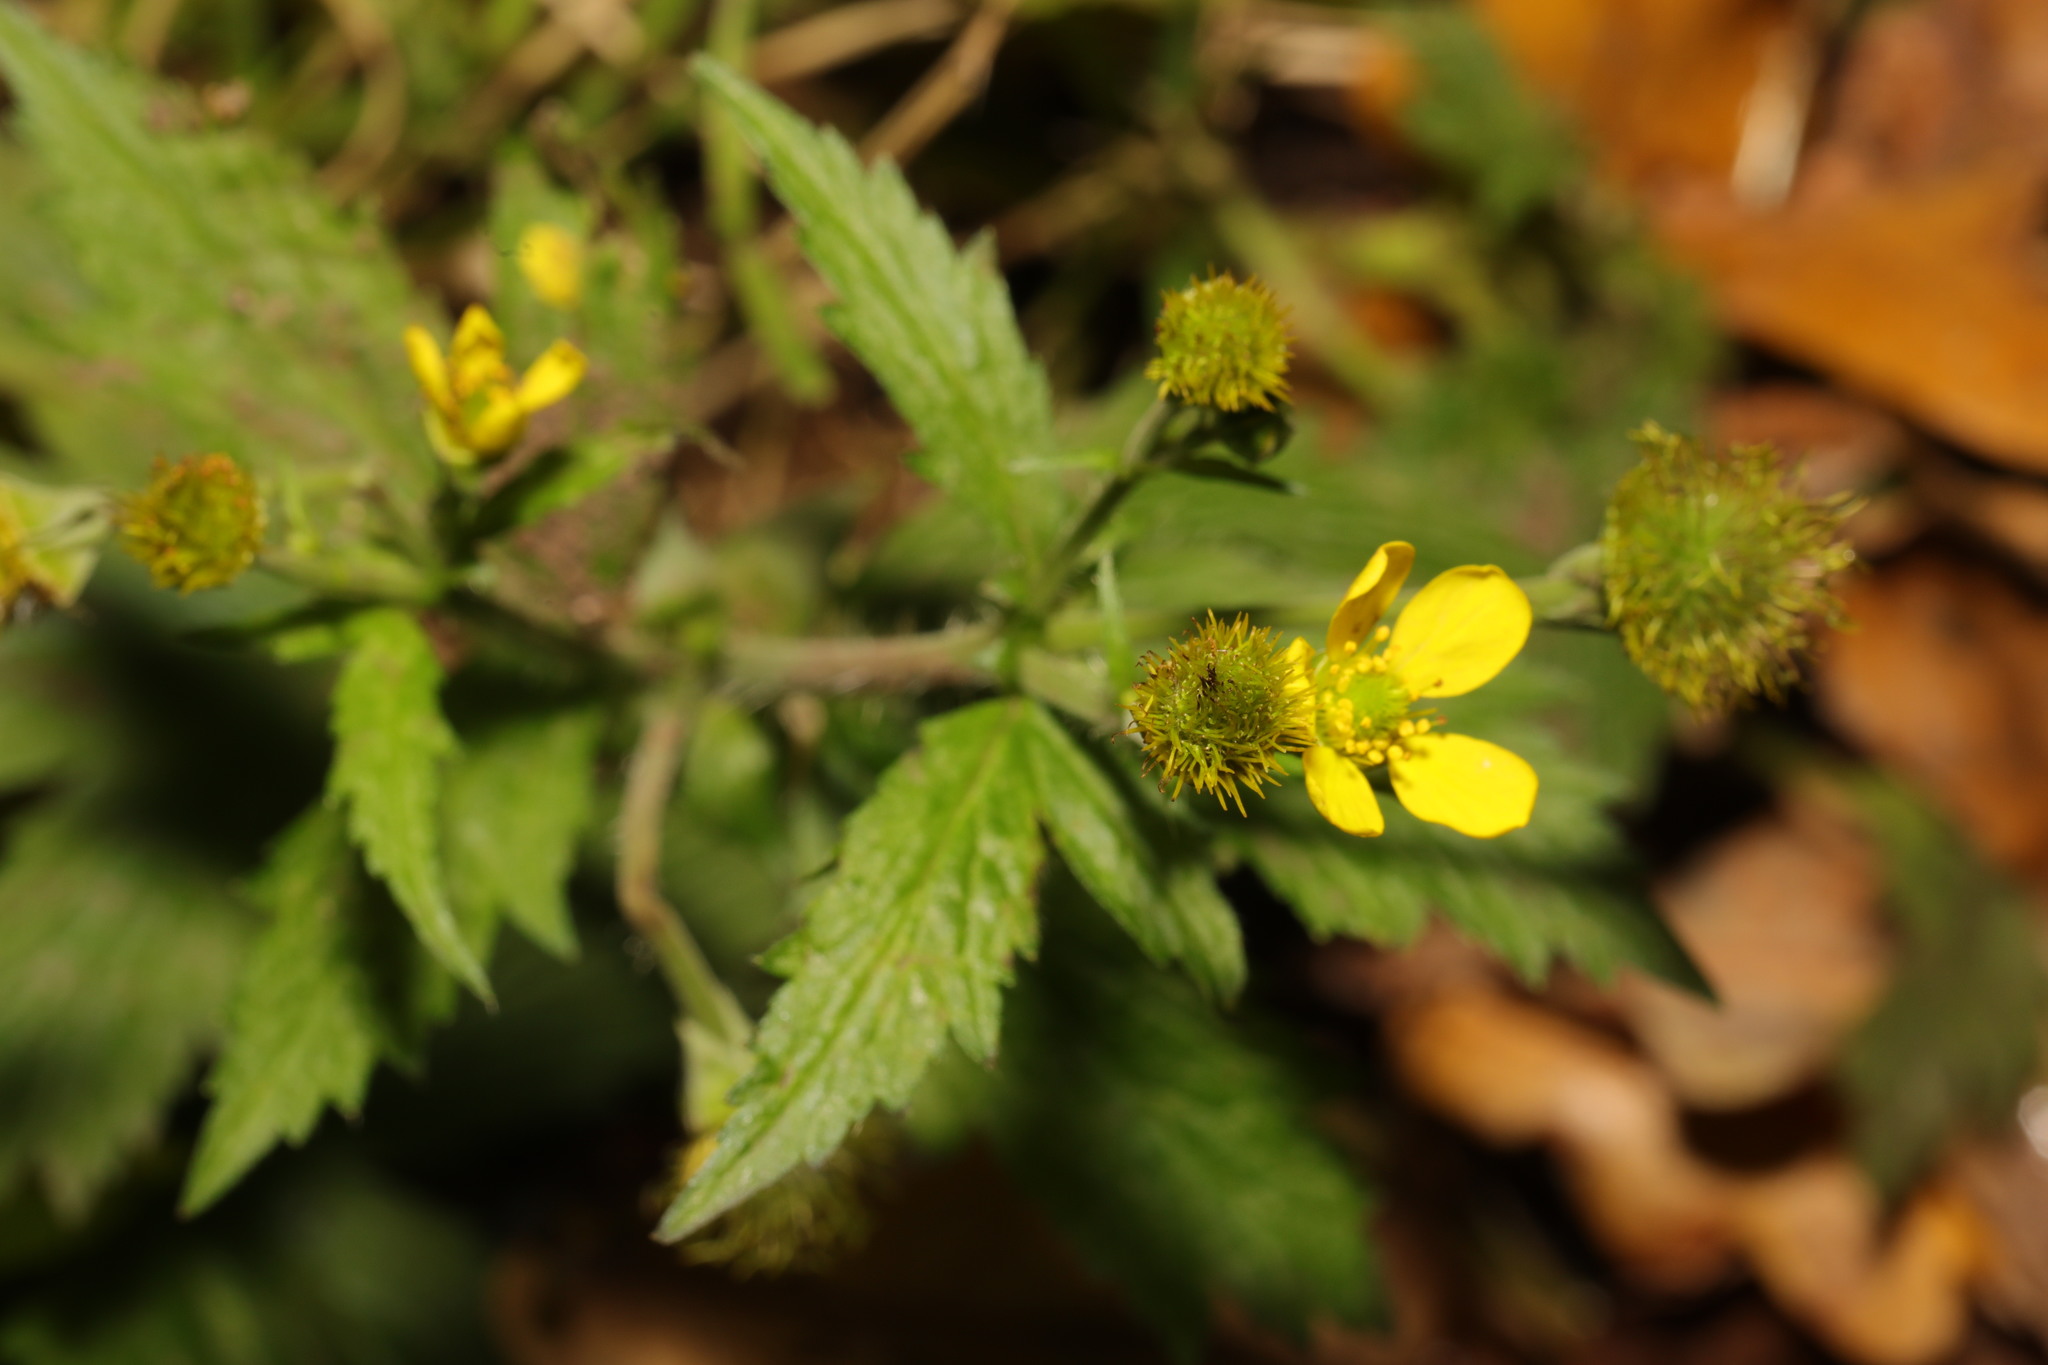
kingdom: Plantae
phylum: Tracheophyta
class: Magnoliopsida
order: Rosales
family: Rosaceae
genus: Geum
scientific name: Geum macrophyllum
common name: Large-leaved avens
